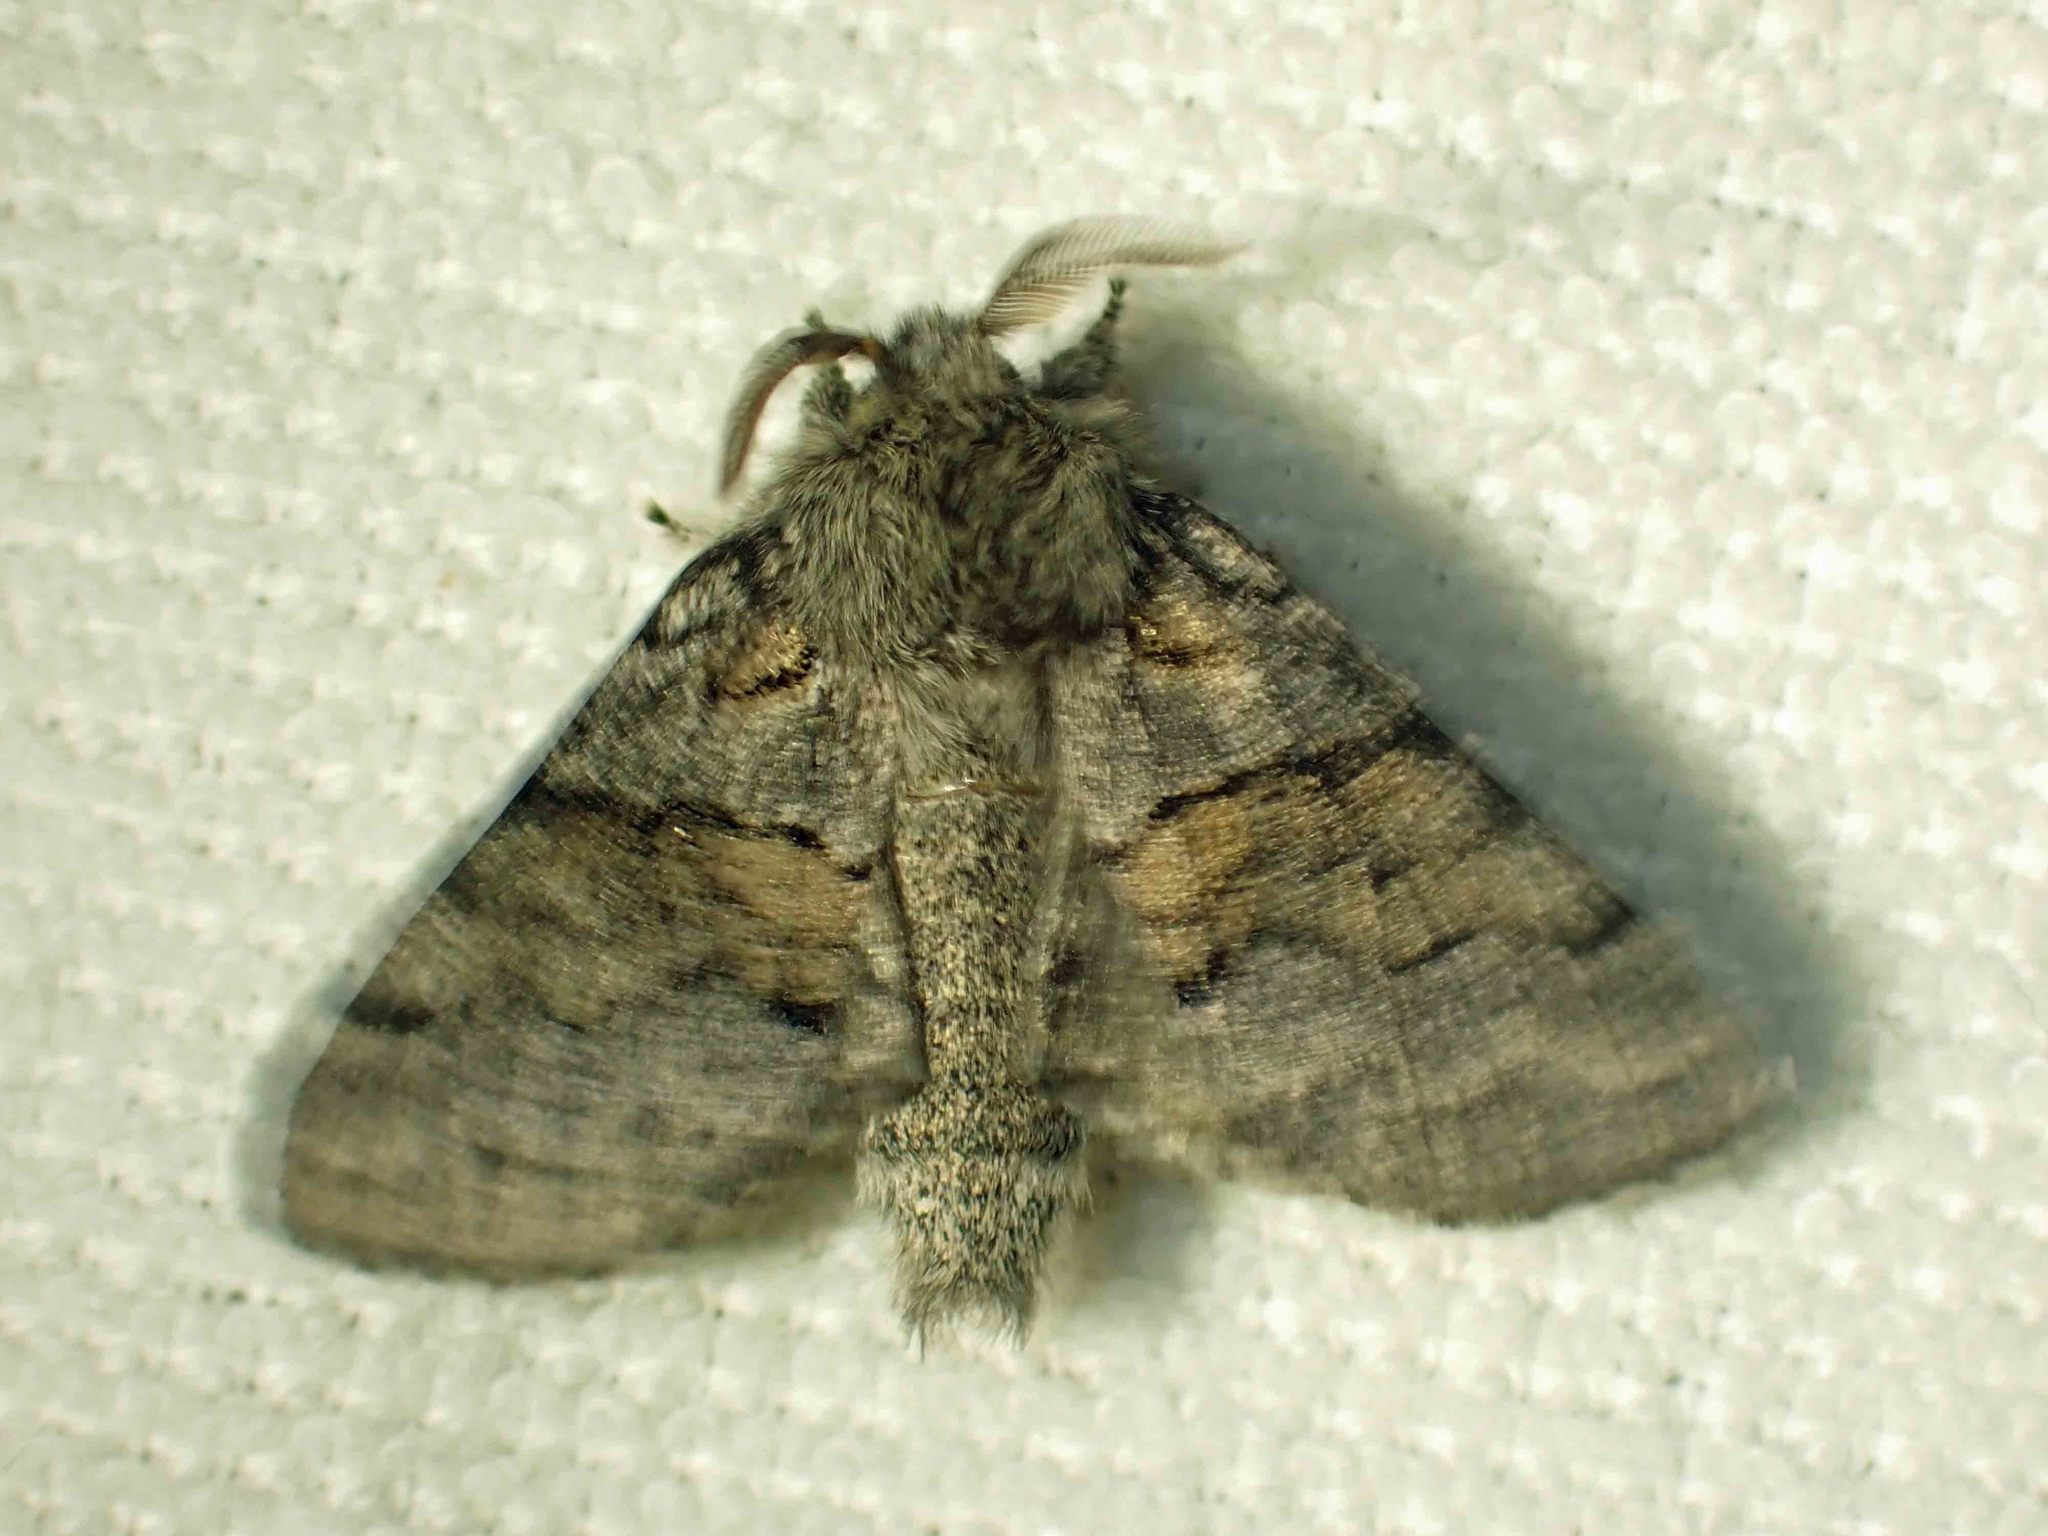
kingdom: Animalia
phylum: Arthropoda
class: Insecta
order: Lepidoptera
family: Notodontidae
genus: Gluphisia
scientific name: Gluphisia septentrionis
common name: Common gluphisia
